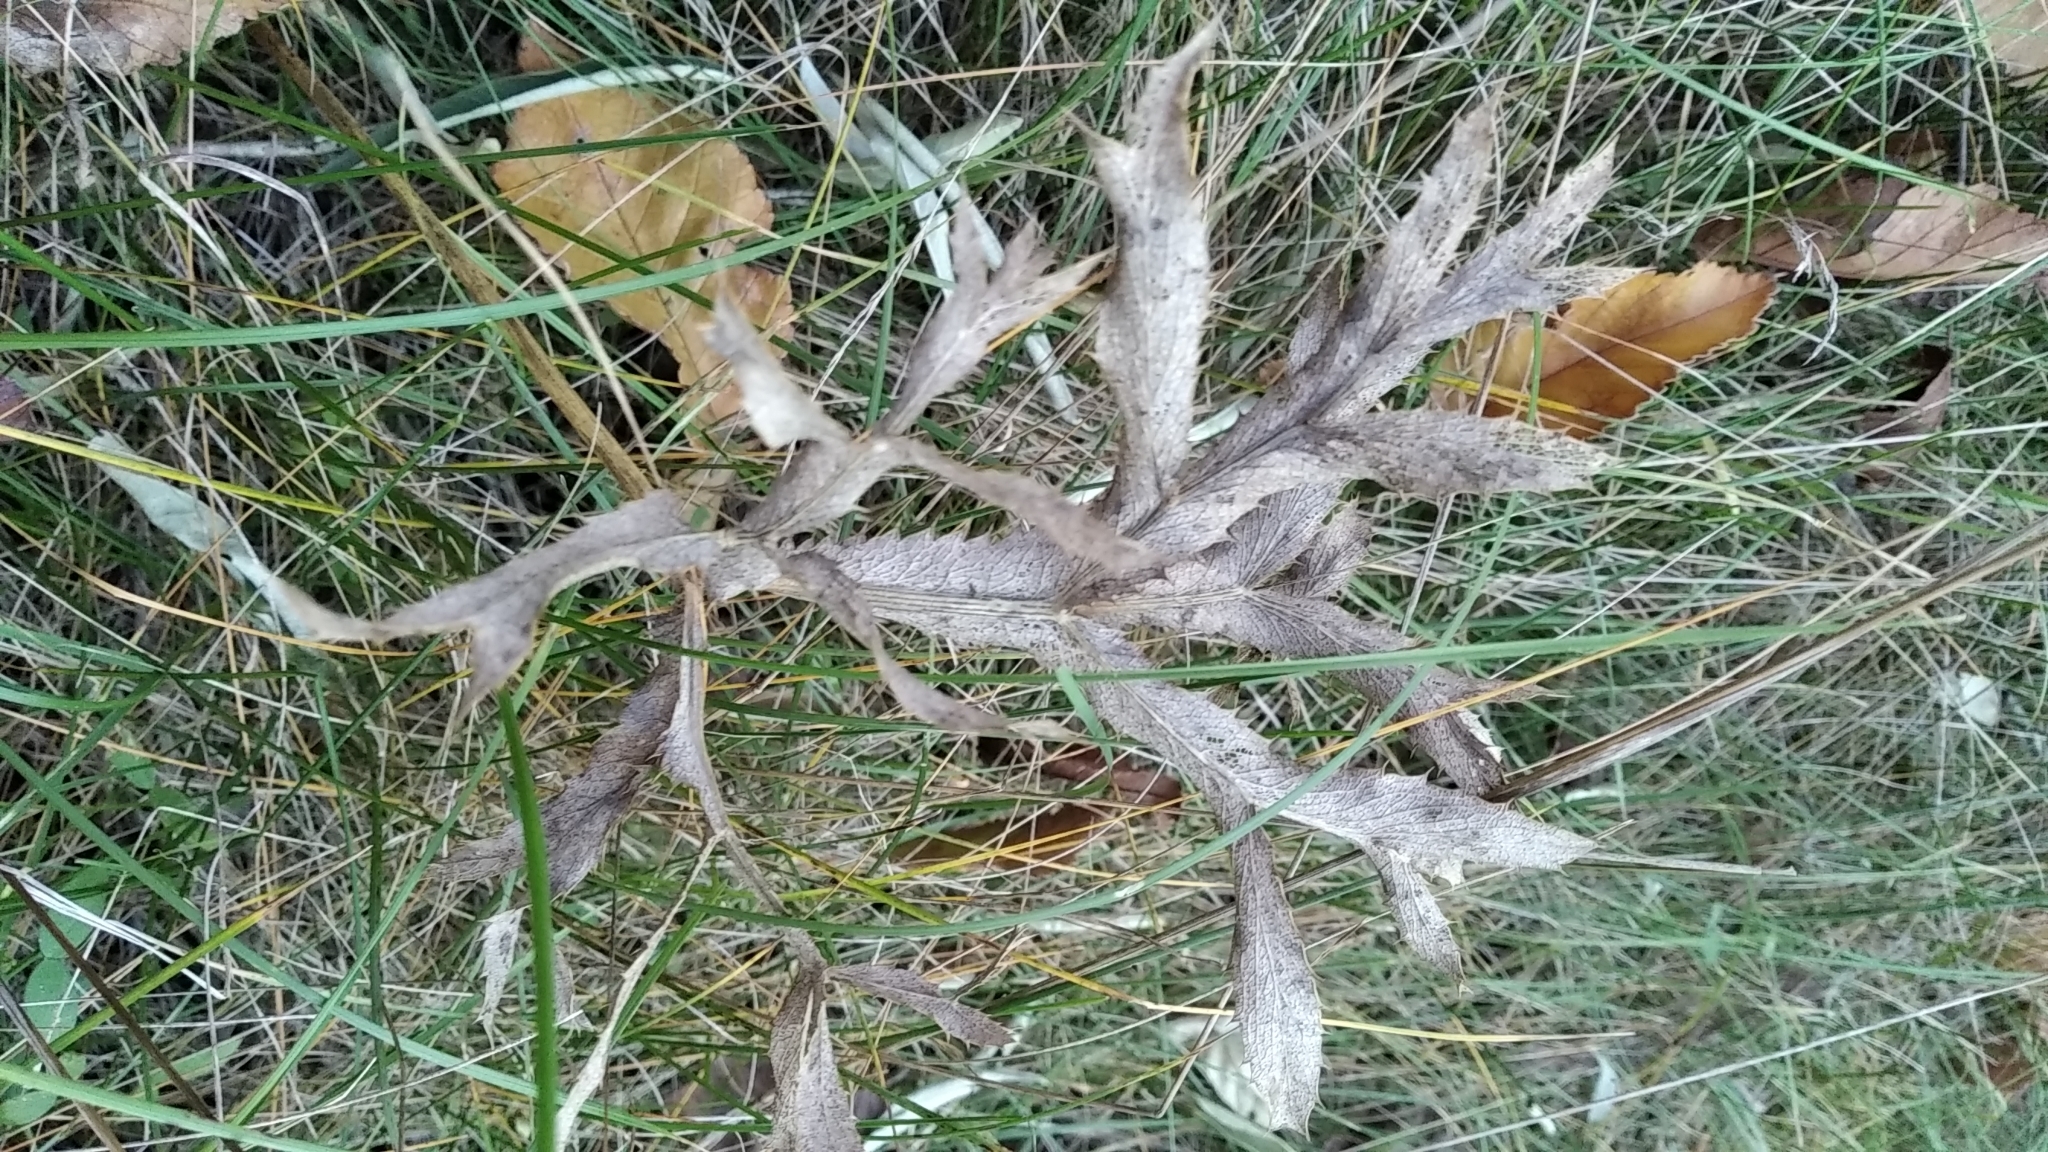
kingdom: Plantae
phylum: Tracheophyta
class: Magnoliopsida
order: Apiales
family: Apiaceae
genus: Eryngium
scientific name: Eryngium campestre
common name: Field eryngo
